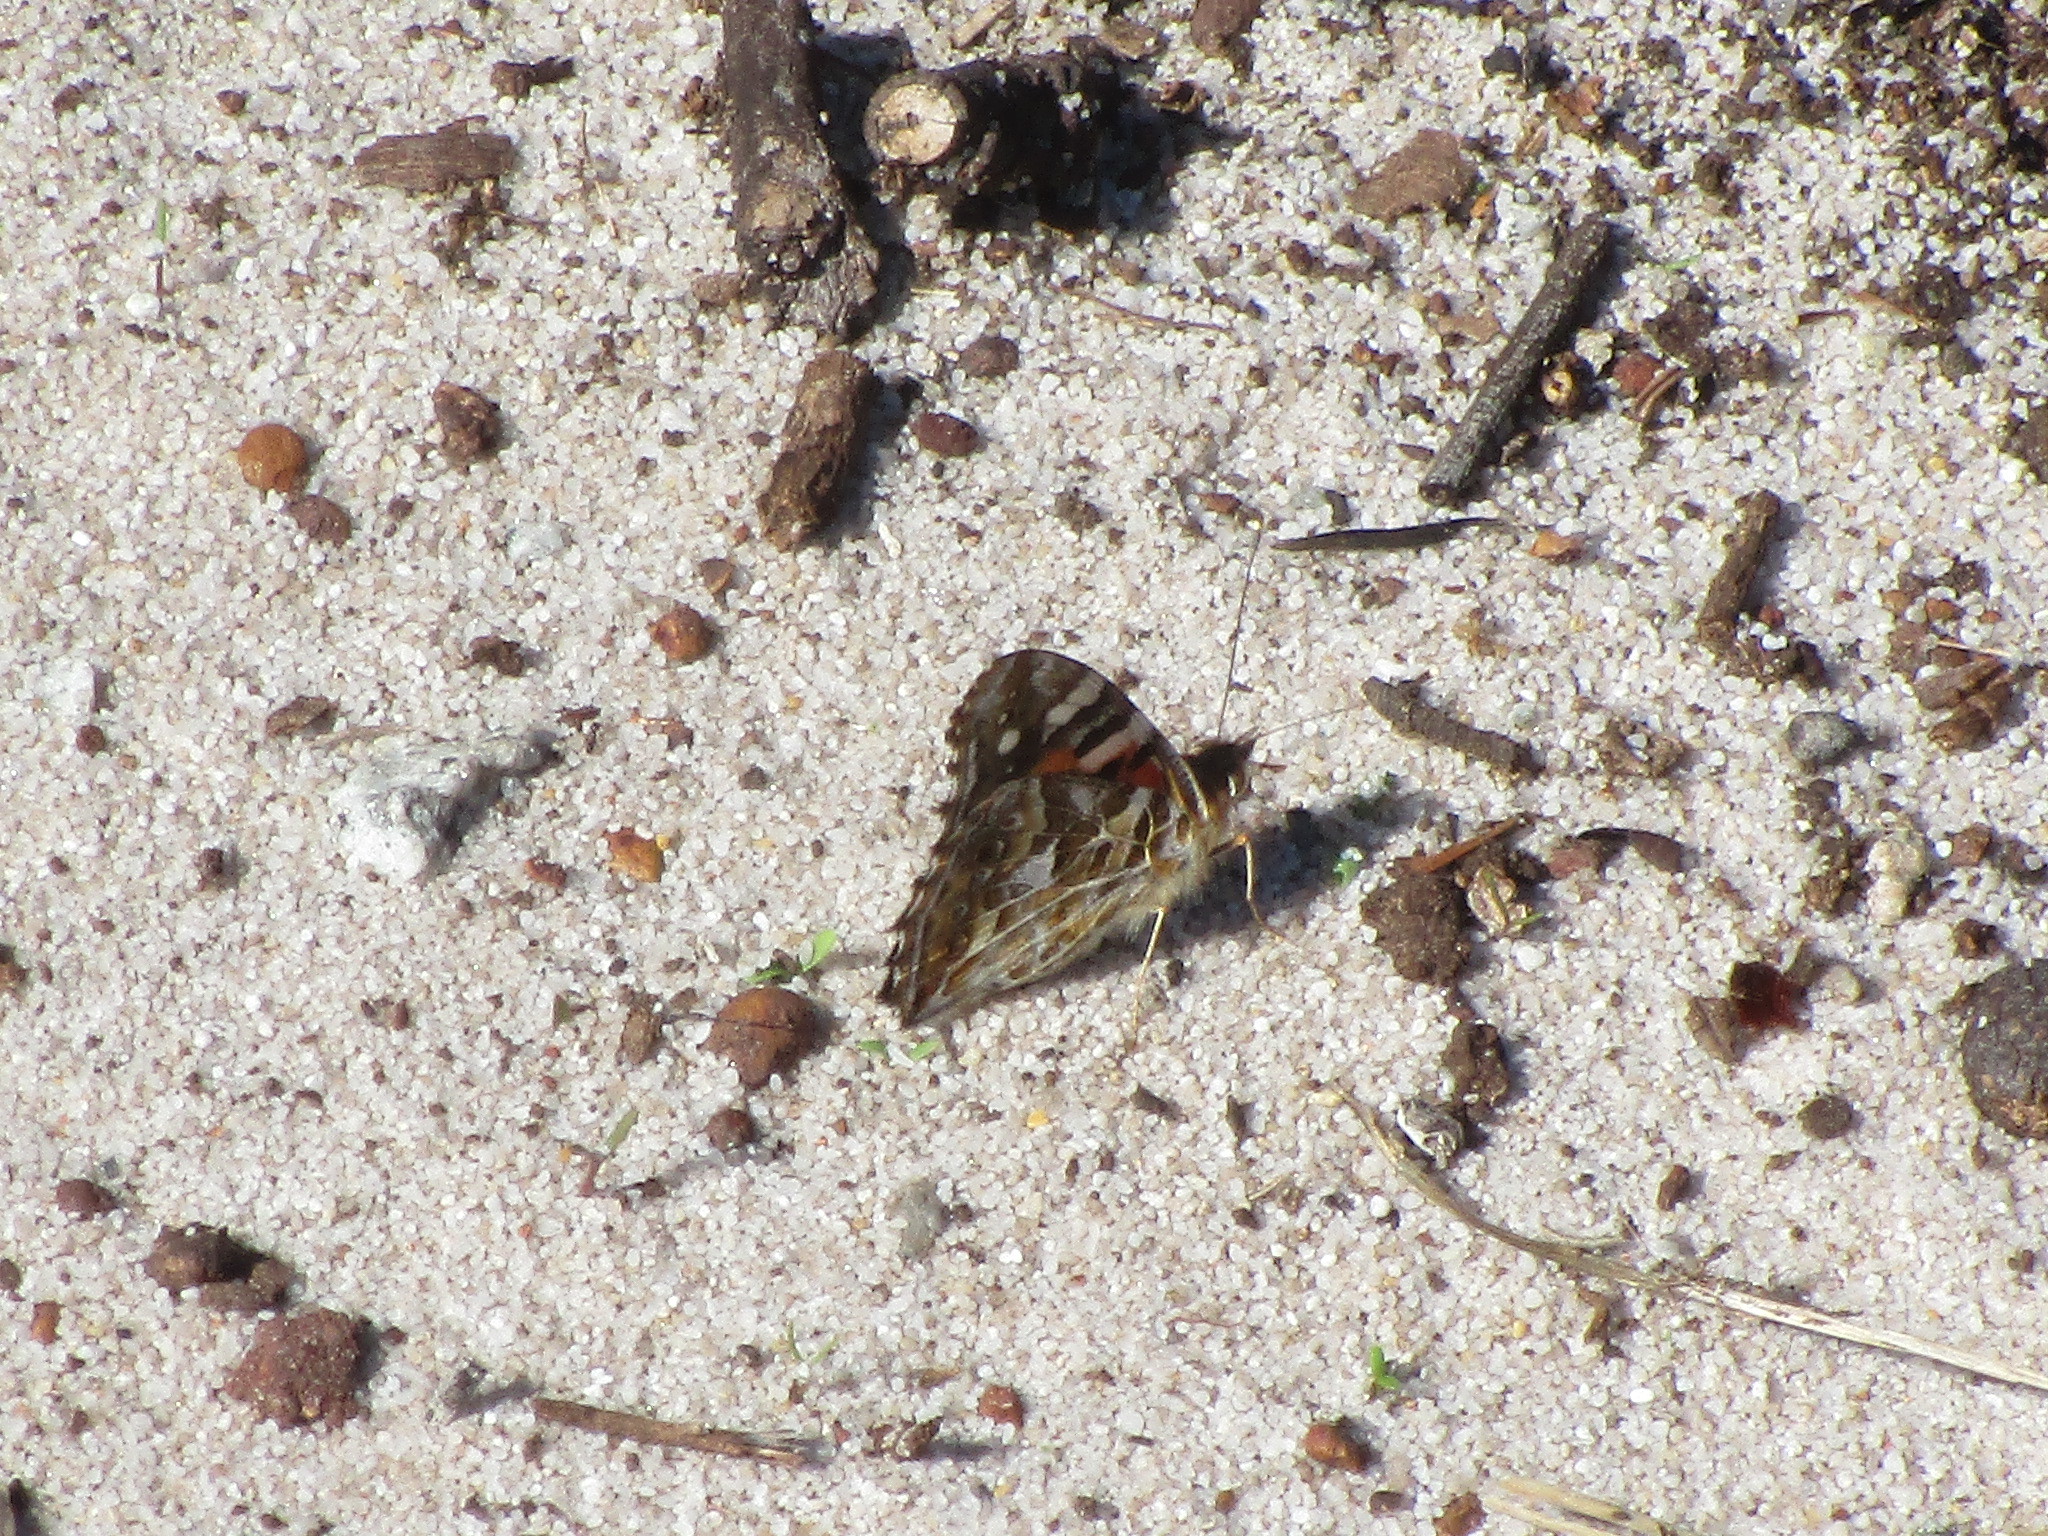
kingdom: Animalia
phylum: Arthropoda
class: Insecta
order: Lepidoptera
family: Nymphalidae
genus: Vanessa
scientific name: Vanessa kershawi
